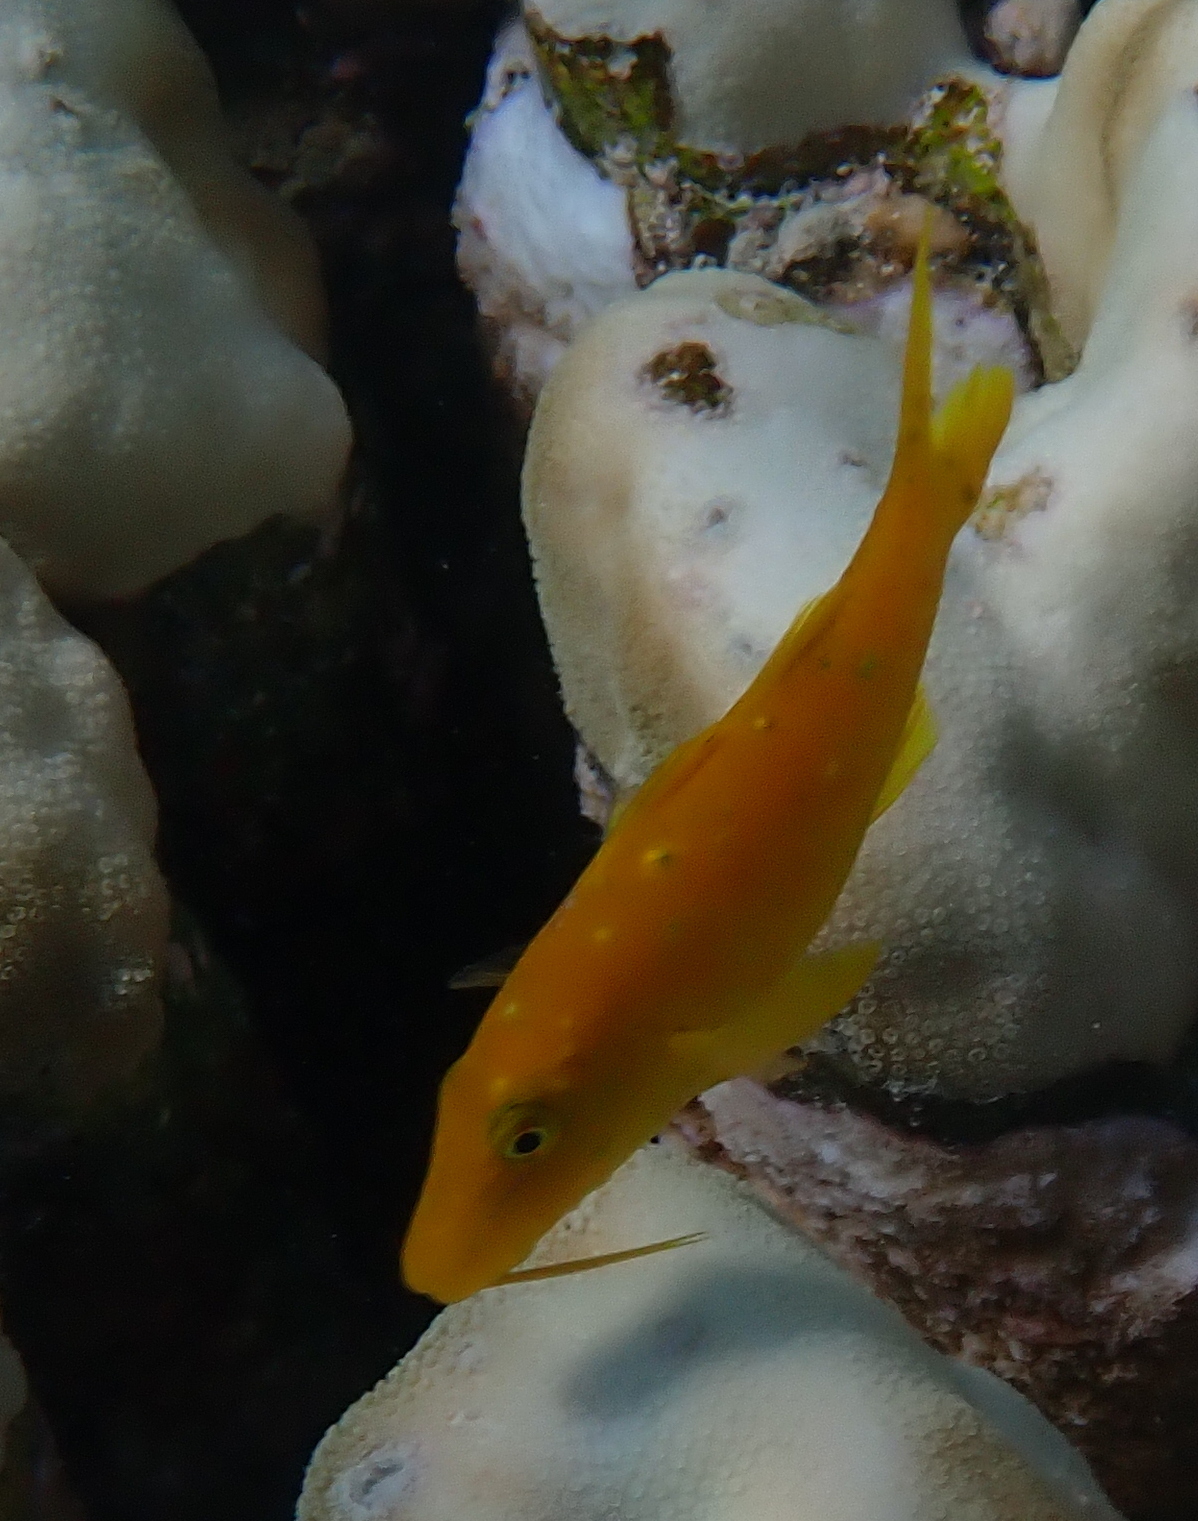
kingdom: Animalia
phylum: Chordata
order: Perciformes
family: Mullidae
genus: Parupeneus
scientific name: Parupeneus cyclostomus
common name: Goldsaddle goatfish
